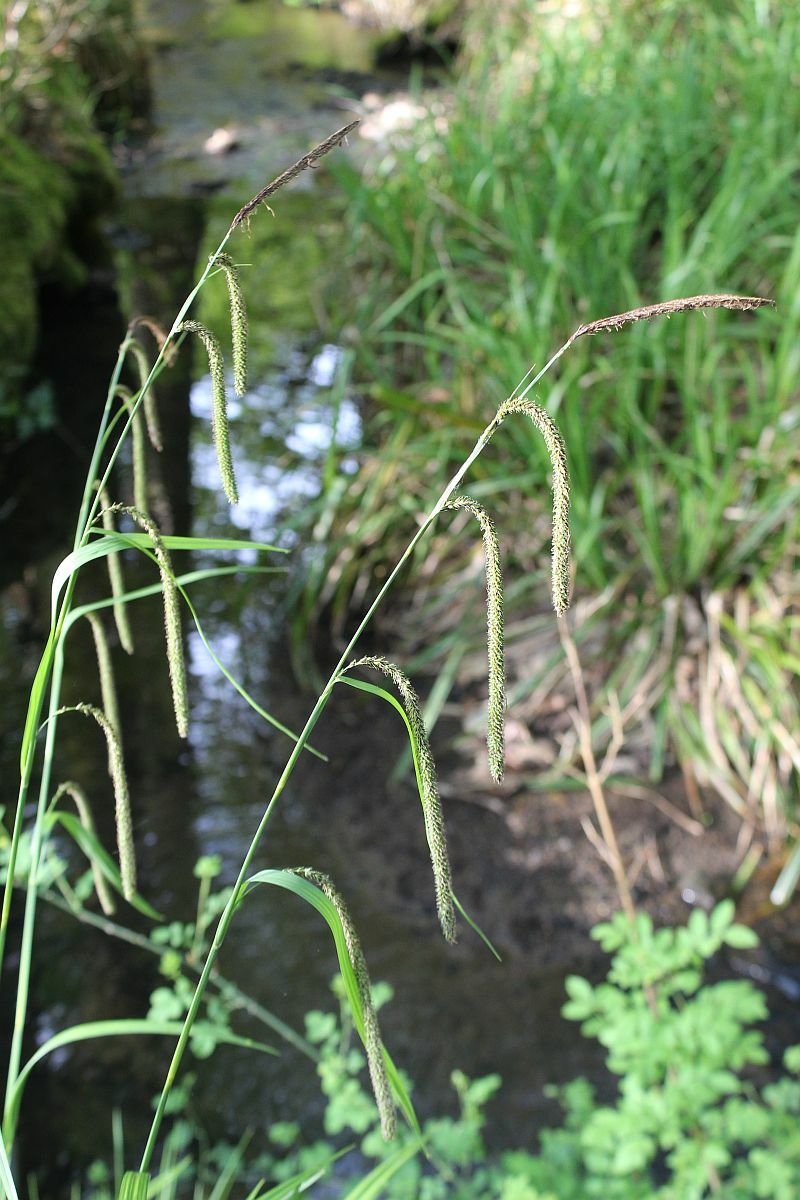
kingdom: Plantae
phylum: Tracheophyta
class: Liliopsida
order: Poales
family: Cyperaceae
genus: Carex
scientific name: Carex pendula
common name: Pendulous sedge
